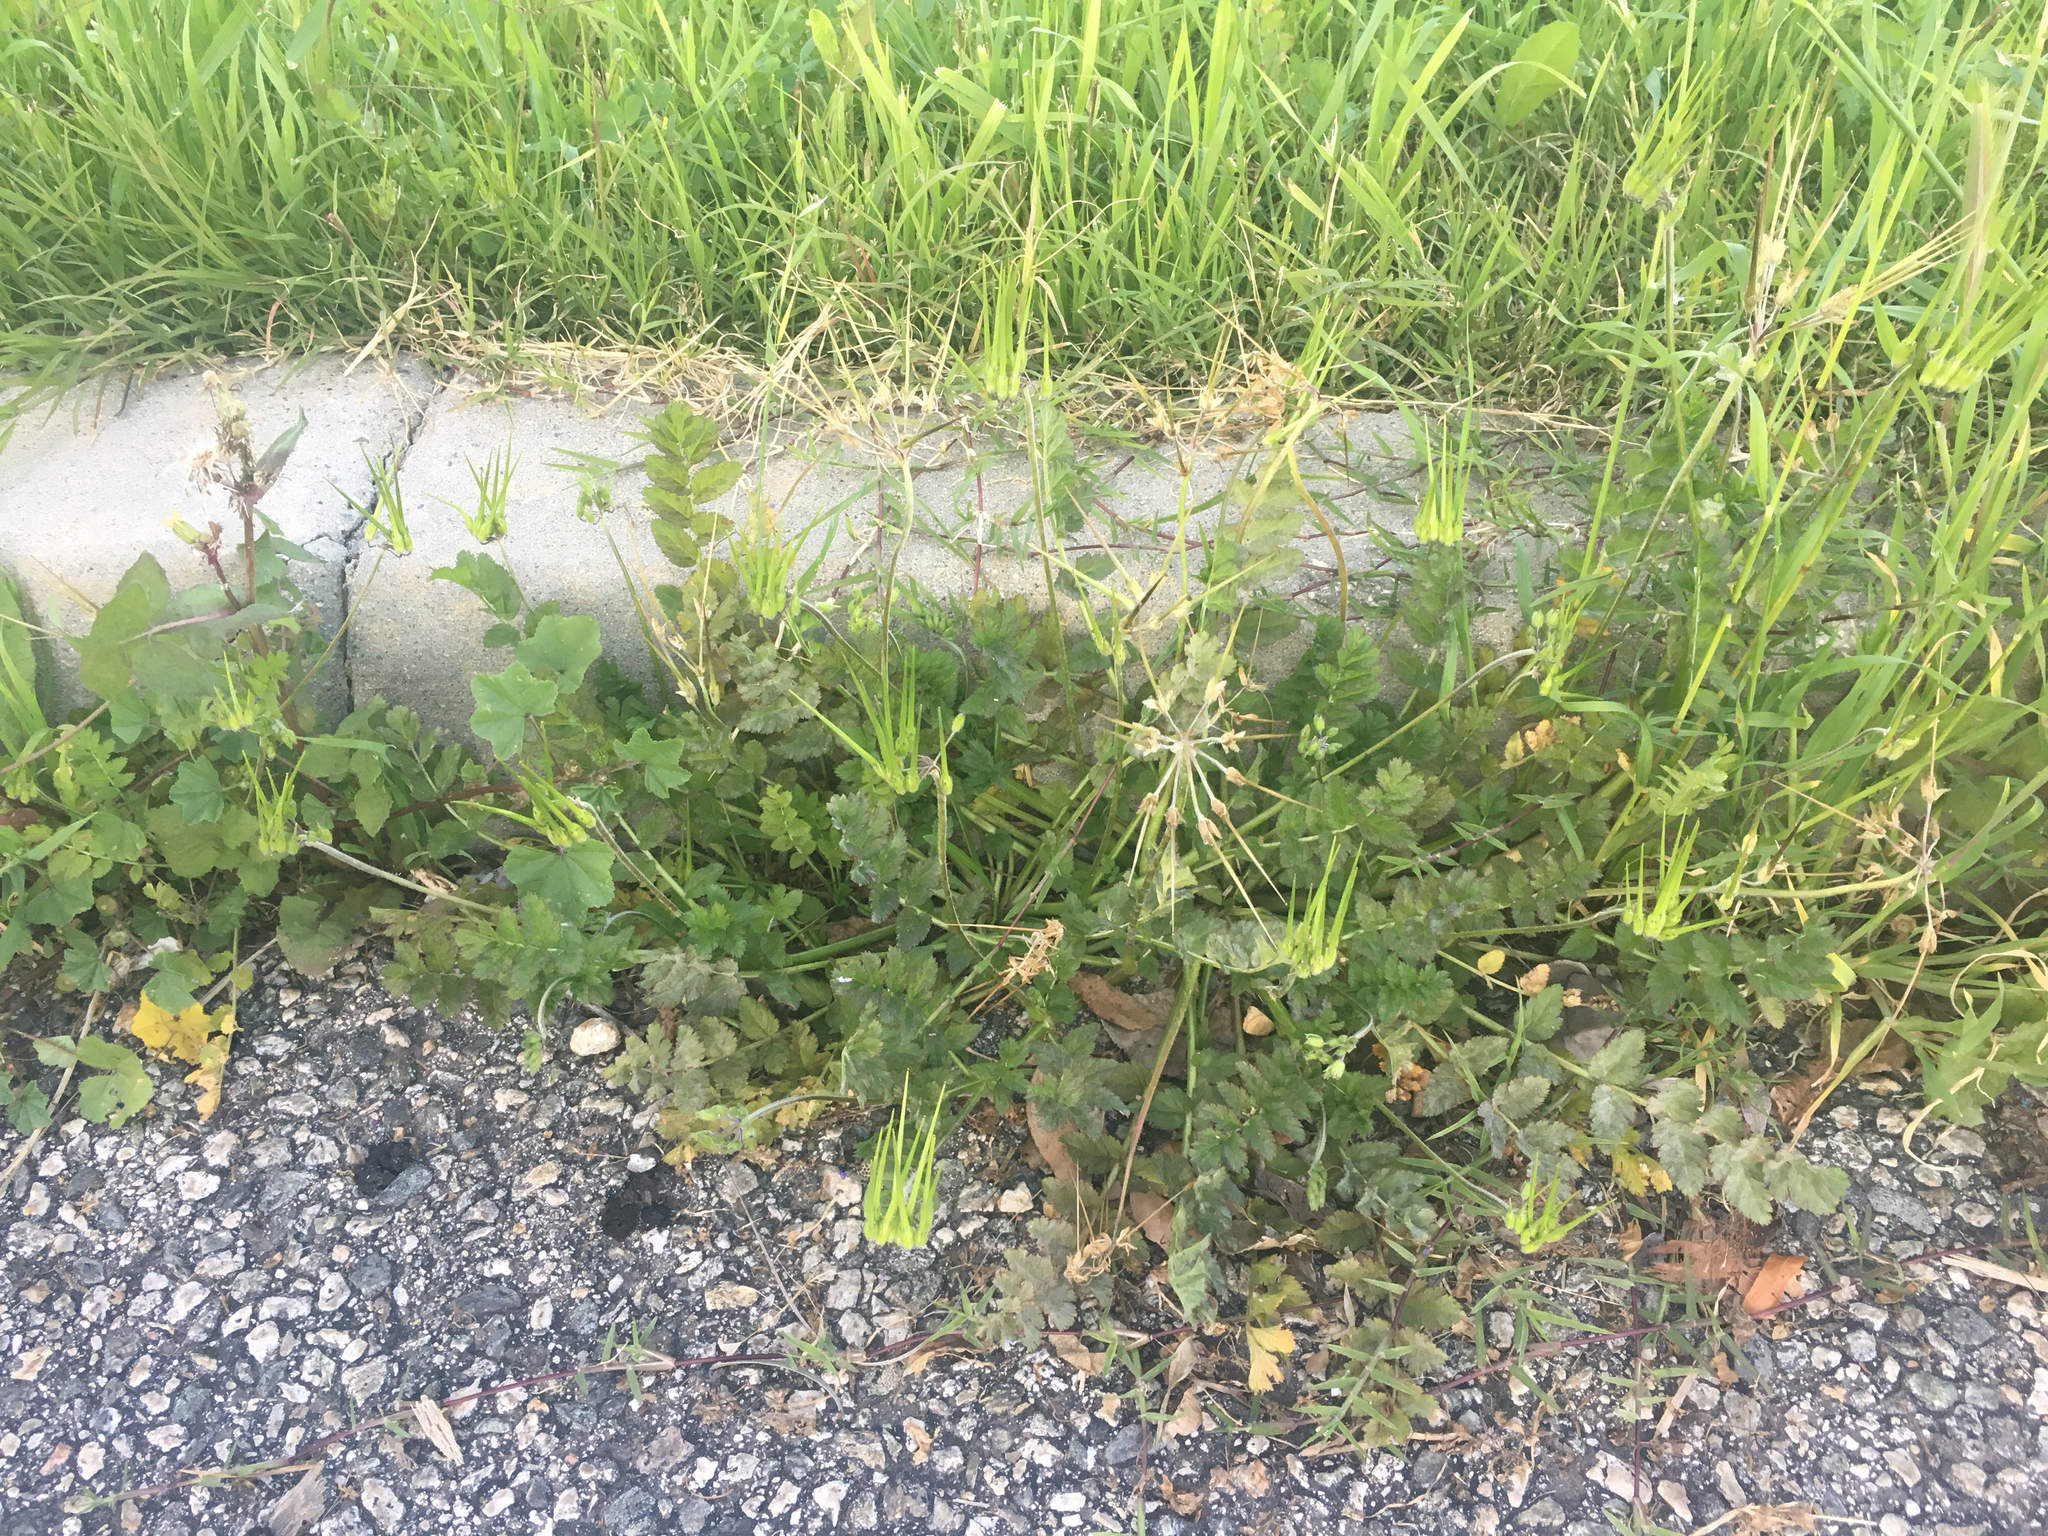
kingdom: Plantae
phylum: Tracheophyta
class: Magnoliopsida
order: Geraniales
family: Geraniaceae
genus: Erodium
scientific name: Erodium moschatum
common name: Musk stork's-bill
